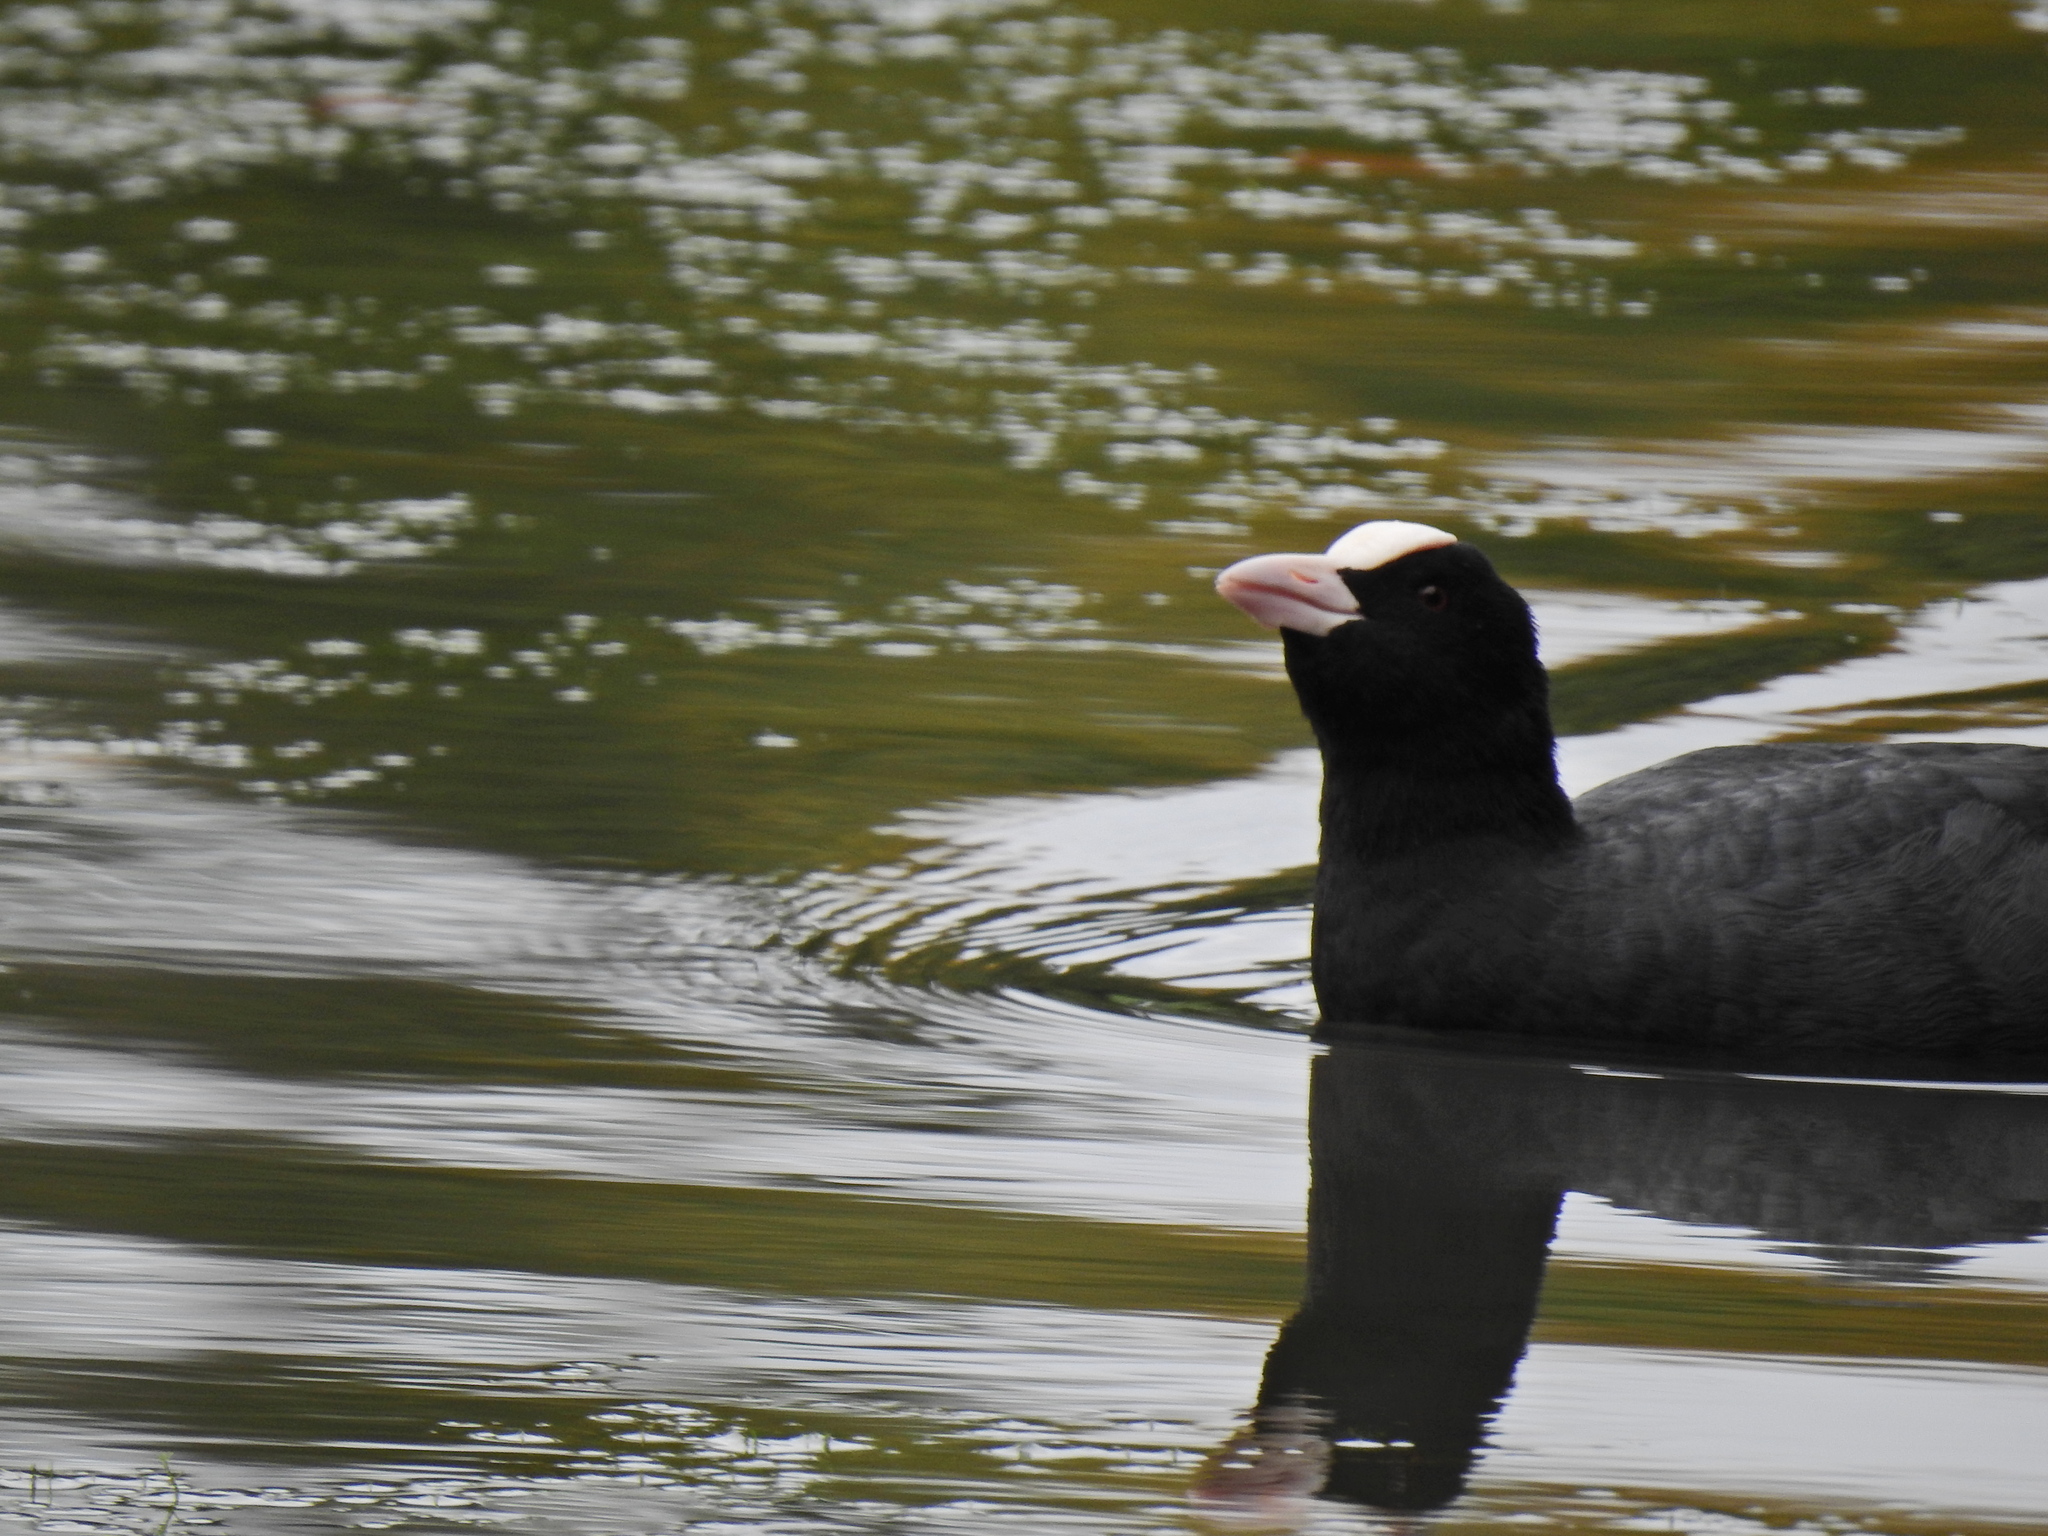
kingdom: Animalia
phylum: Chordata
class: Aves
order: Gruiformes
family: Rallidae
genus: Fulica
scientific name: Fulica atra
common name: Eurasian coot
